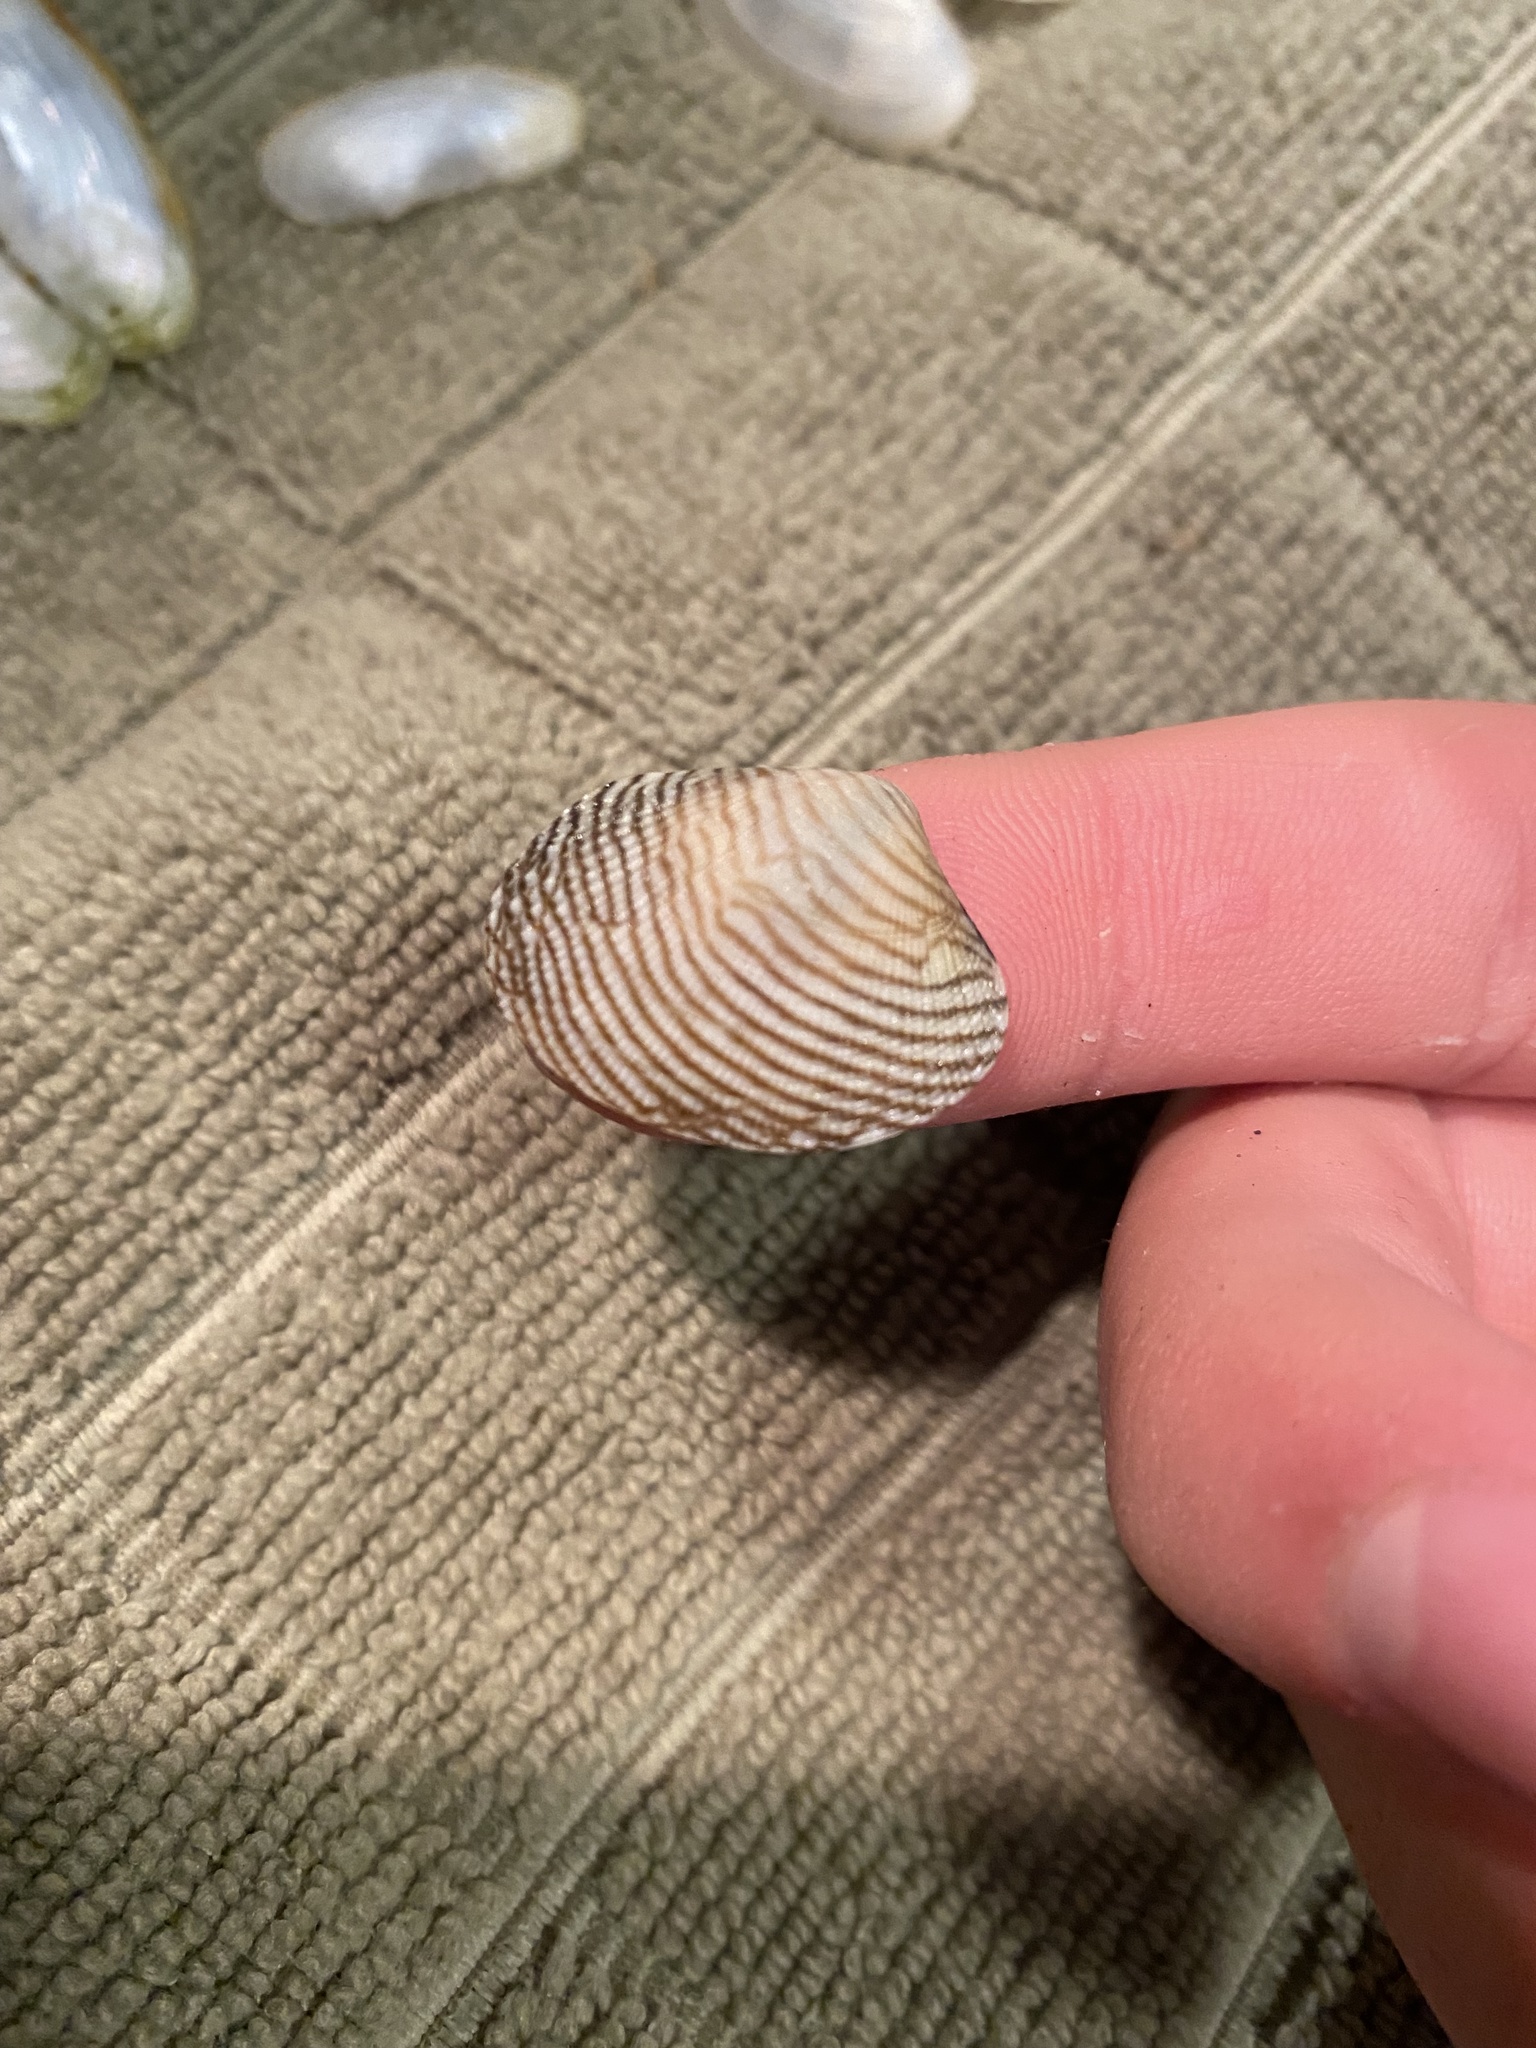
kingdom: Animalia
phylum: Mollusca
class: Bivalvia
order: Venerida
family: Veneridae
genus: Ruditapes
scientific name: Ruditapes philippinarum
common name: Manila clam
